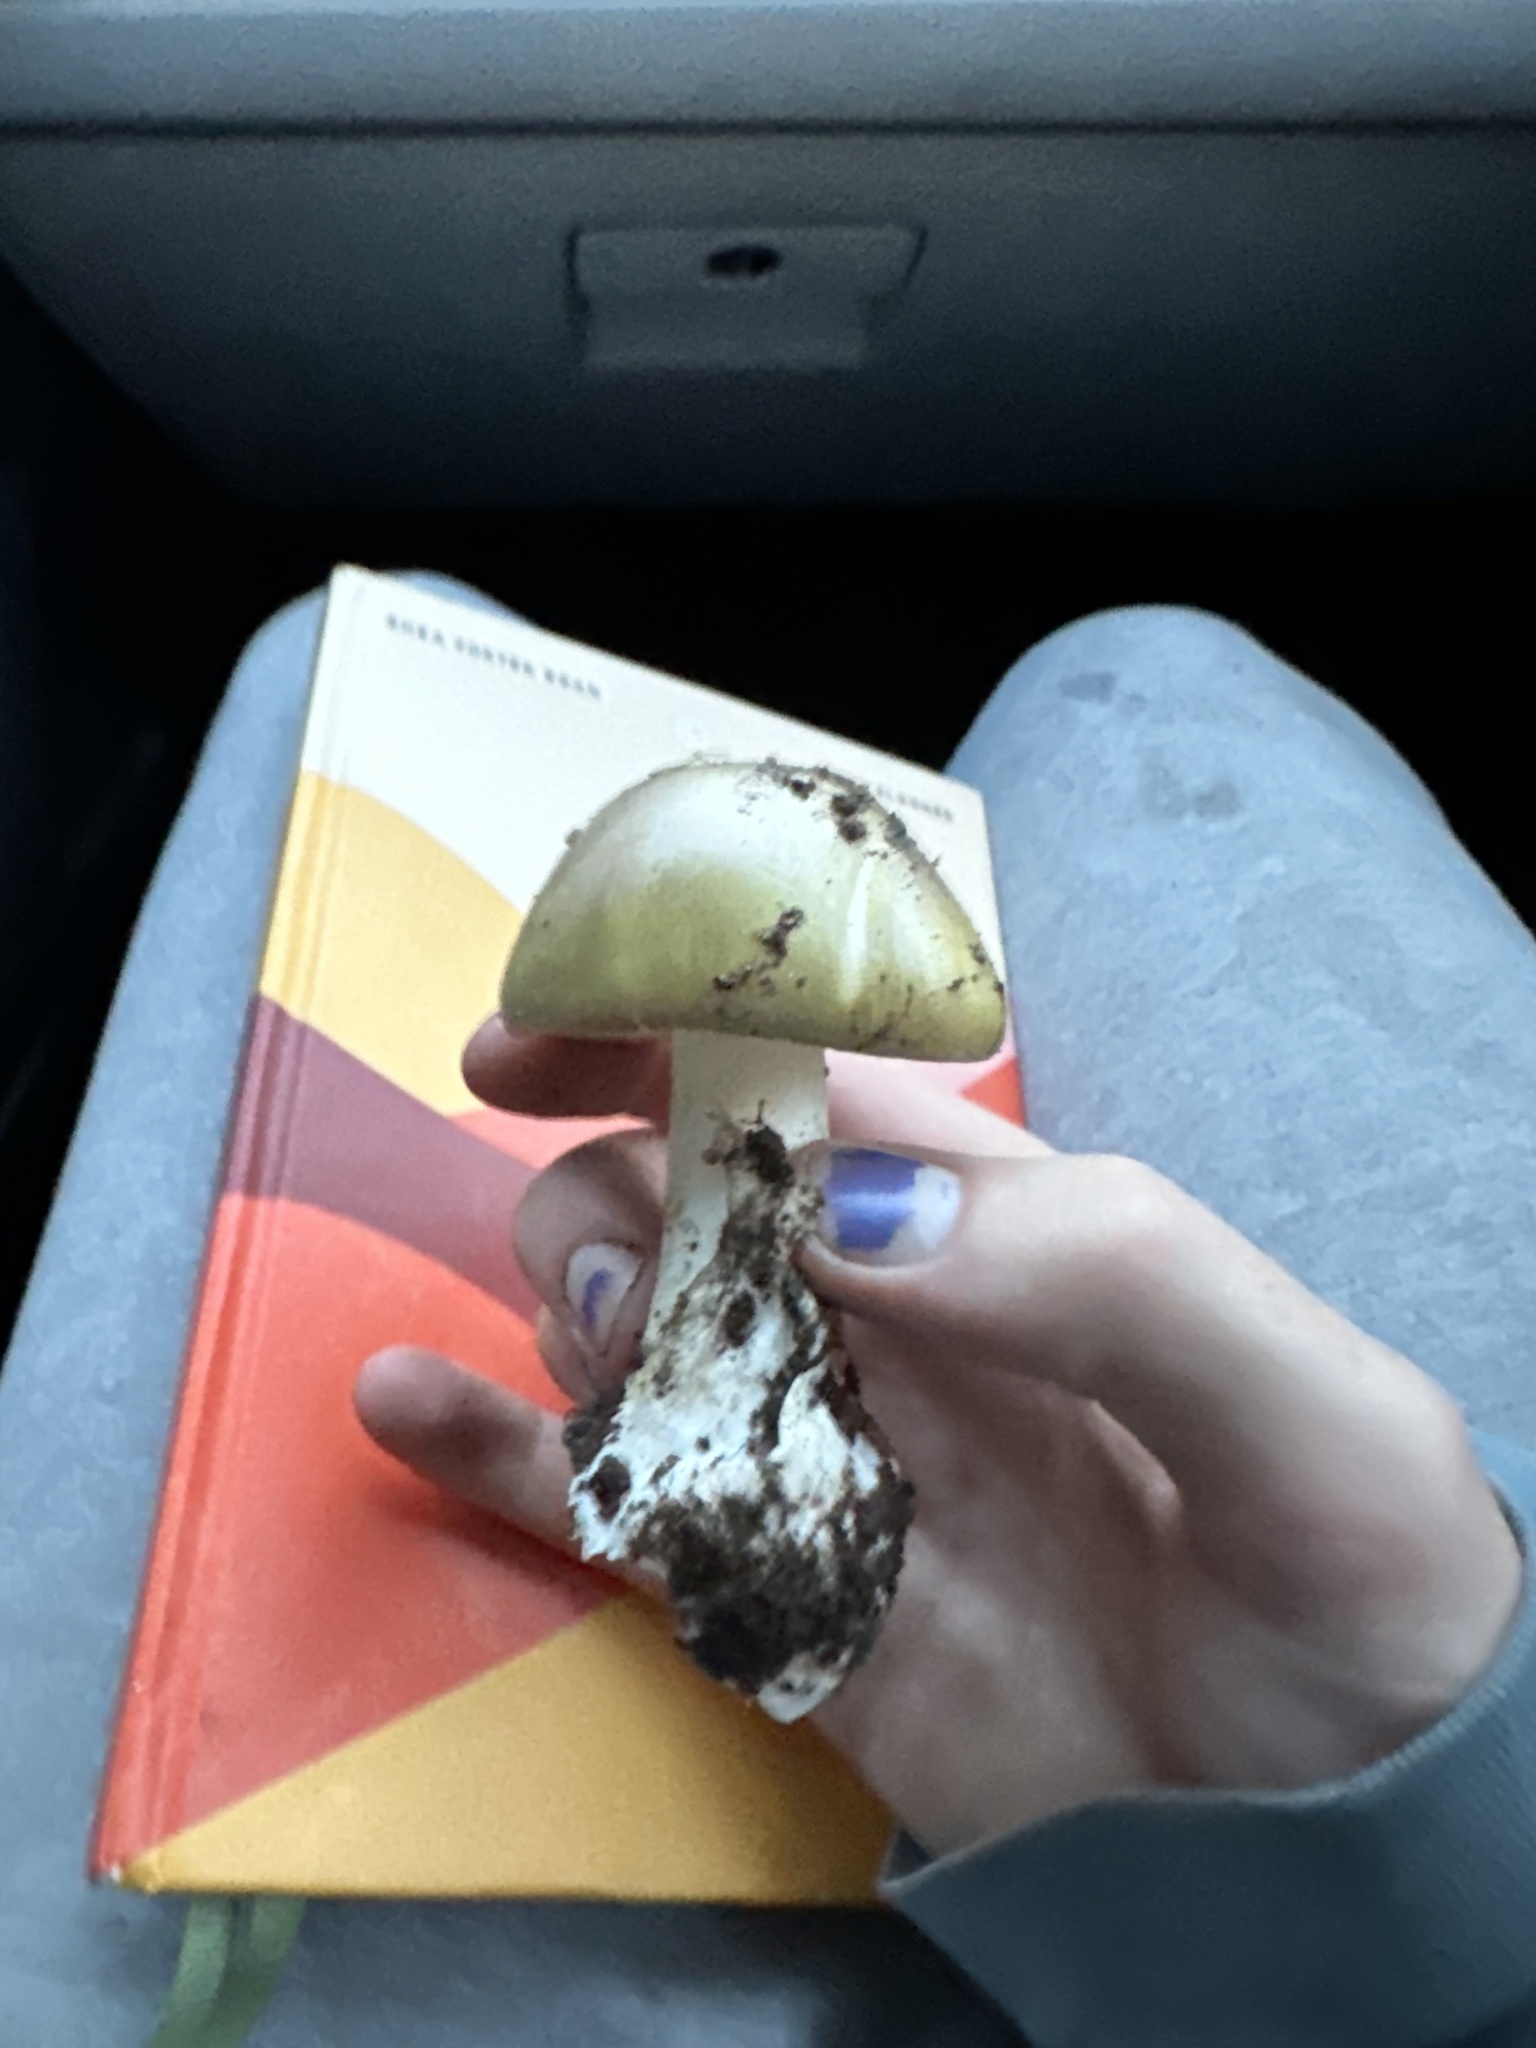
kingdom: Fungi
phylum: Basidiomycota
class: Agaricomycetes
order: Agaricales
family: Amanitaceae
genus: Amanita
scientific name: Amanita phalloides
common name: Death cap
